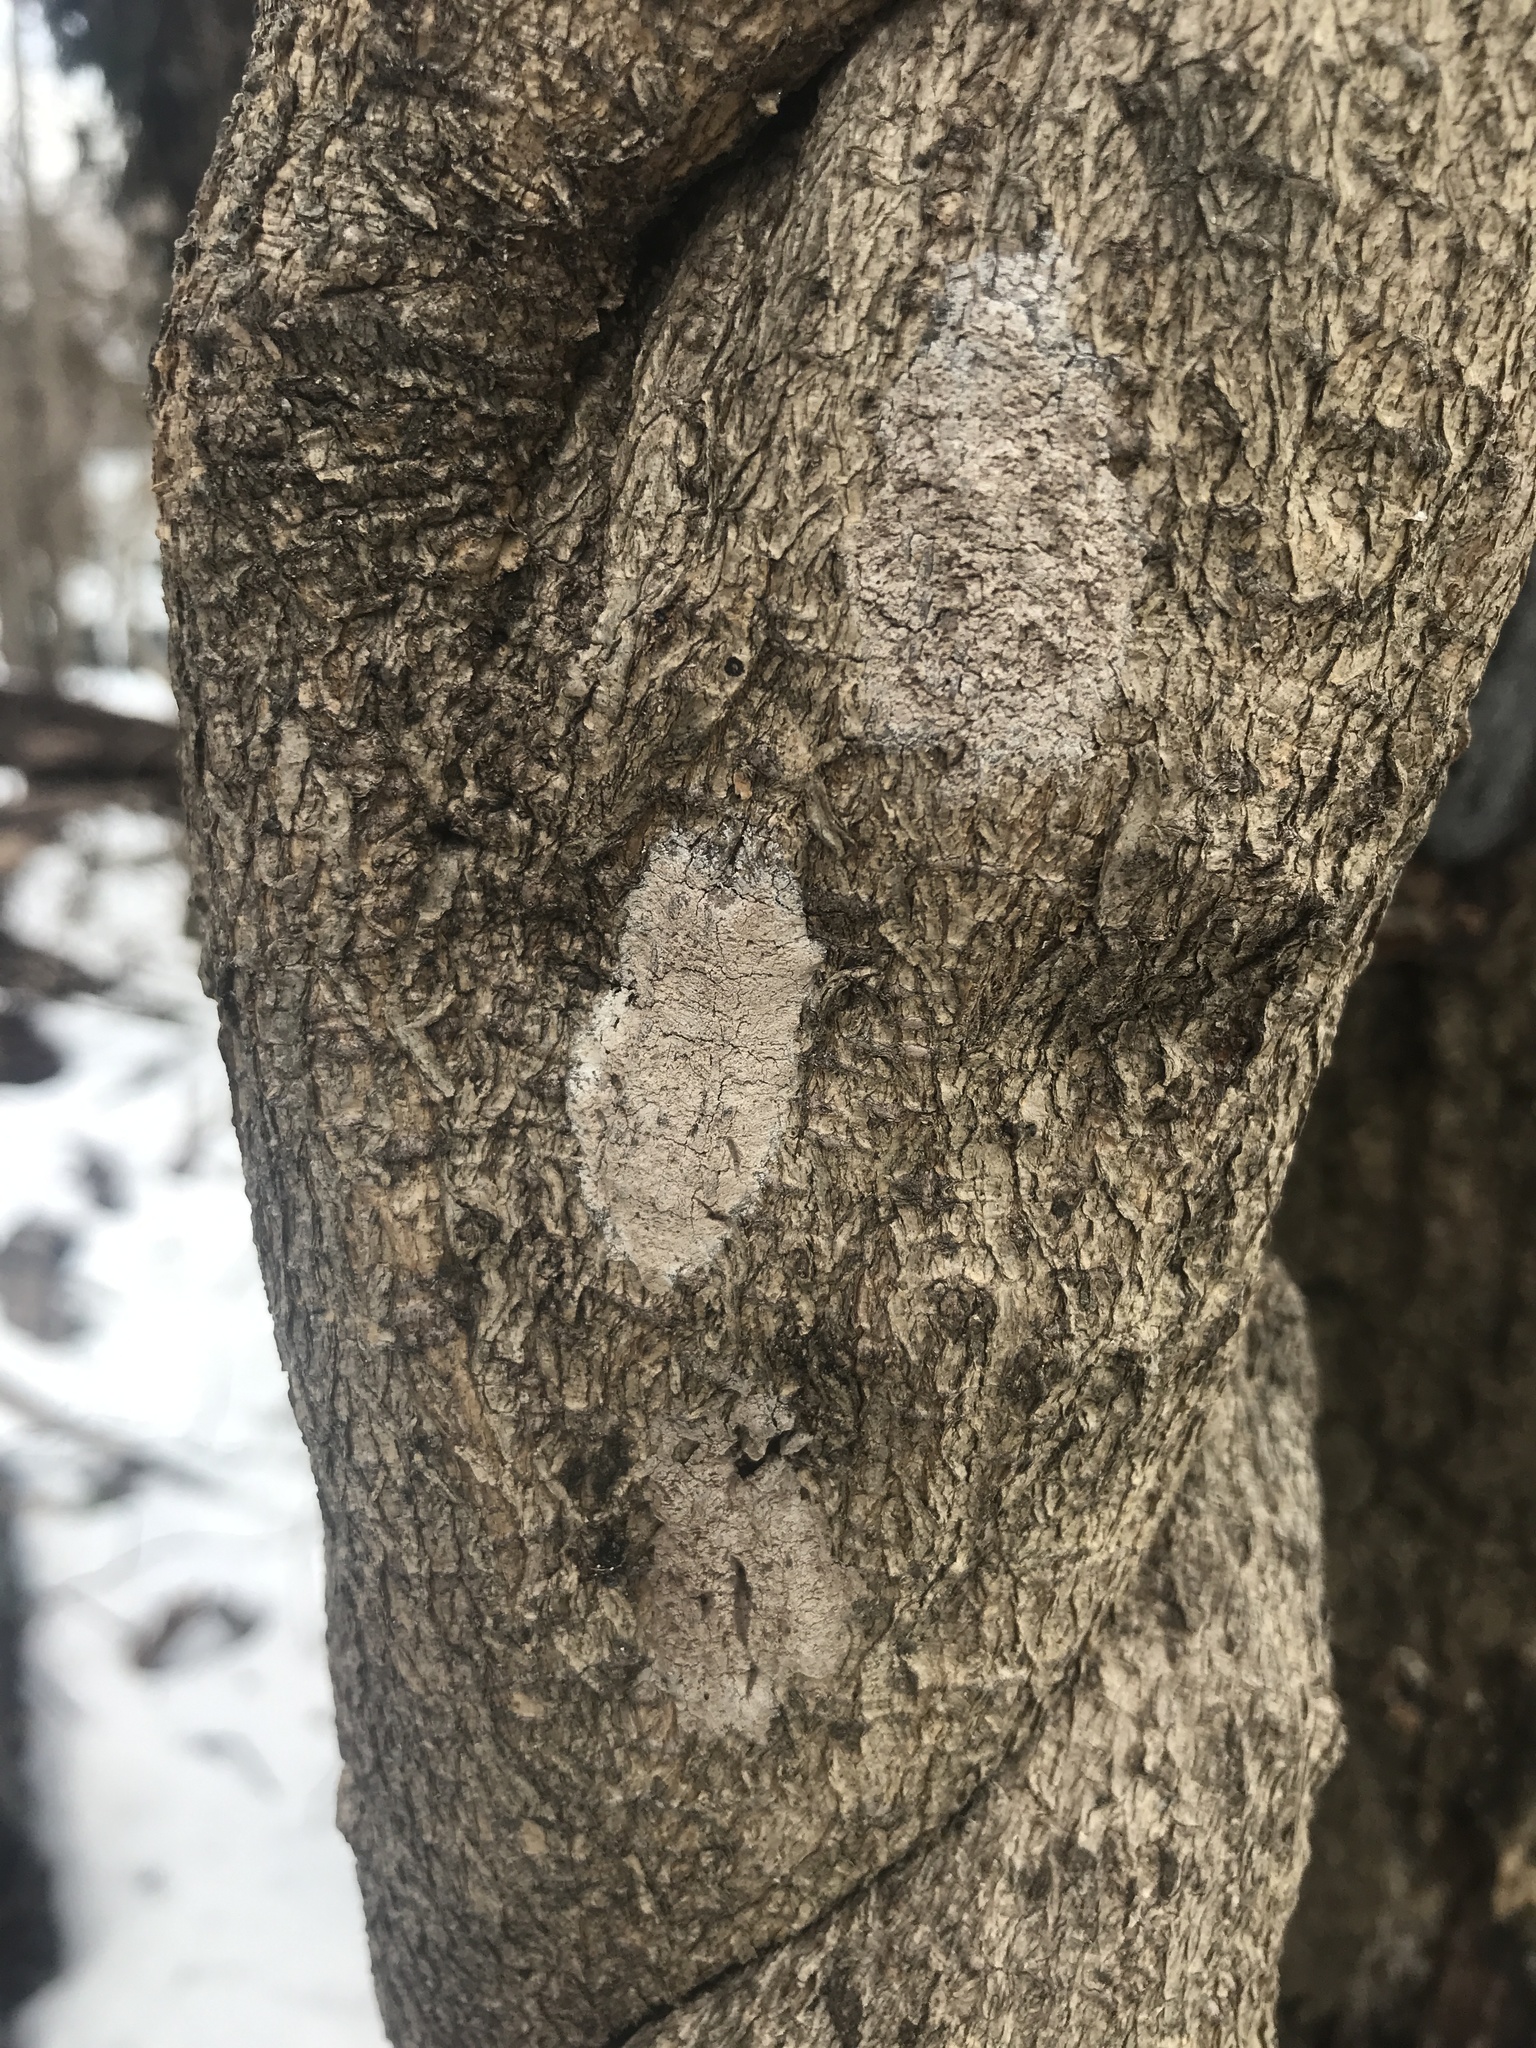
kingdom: Animalia
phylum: Arthropoda
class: Insecta
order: Hemiptera
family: Fulgoridae
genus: Lycorma
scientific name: Lycorma delicatula
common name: Spotted lanternfly
